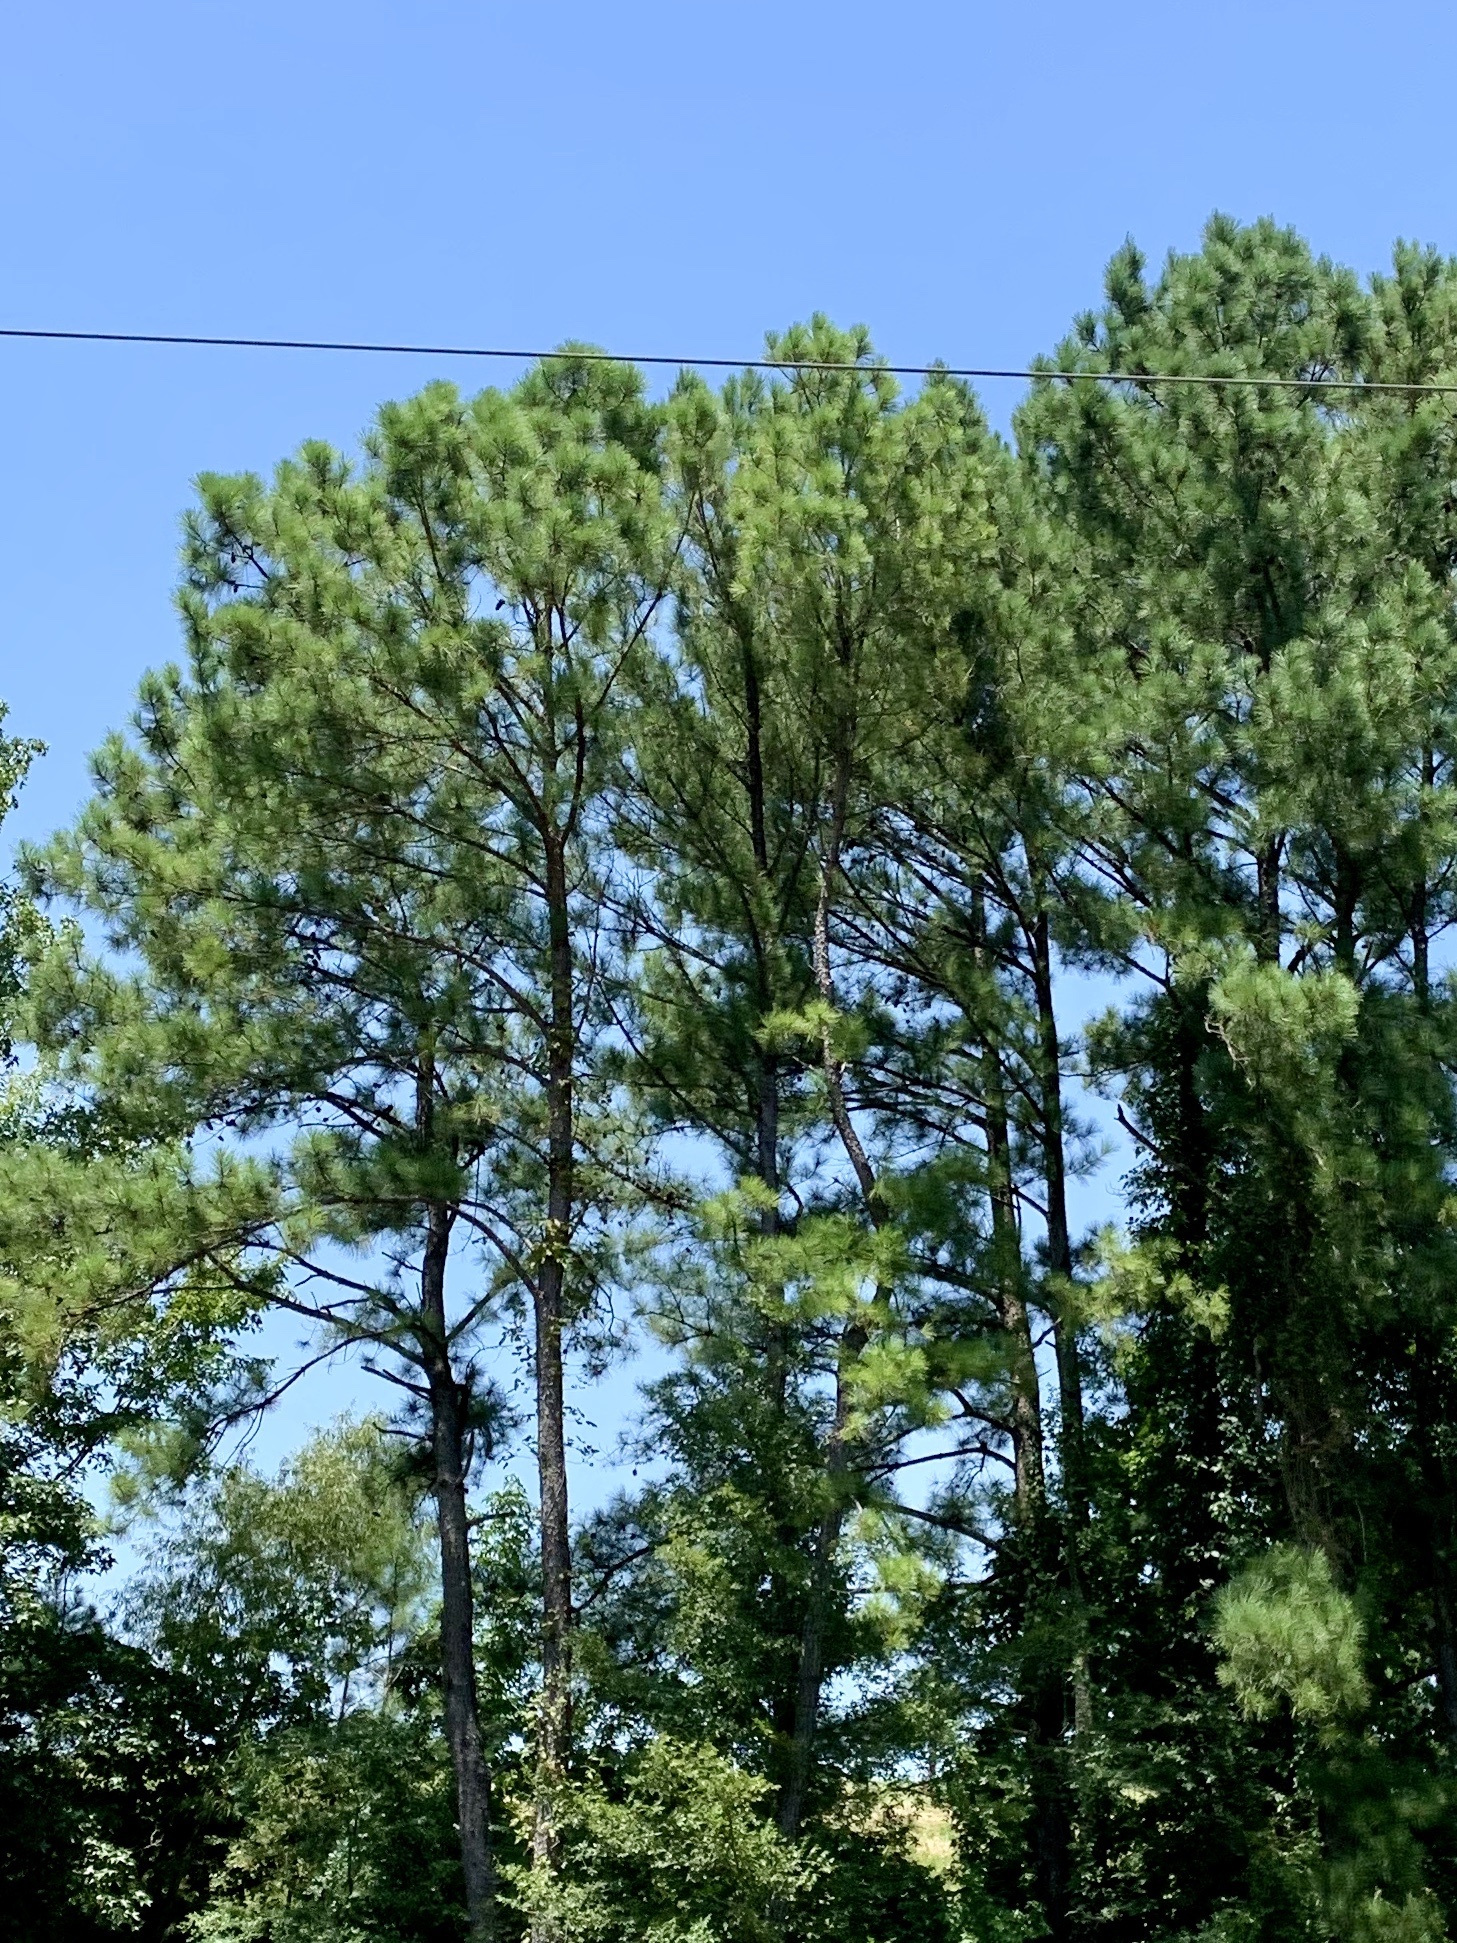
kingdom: Plantae
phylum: Tracheophyta
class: Pinopsida
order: Pinales
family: Pinaceae
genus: Pinus
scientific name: Pinus echinata
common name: Shortleaf pine
